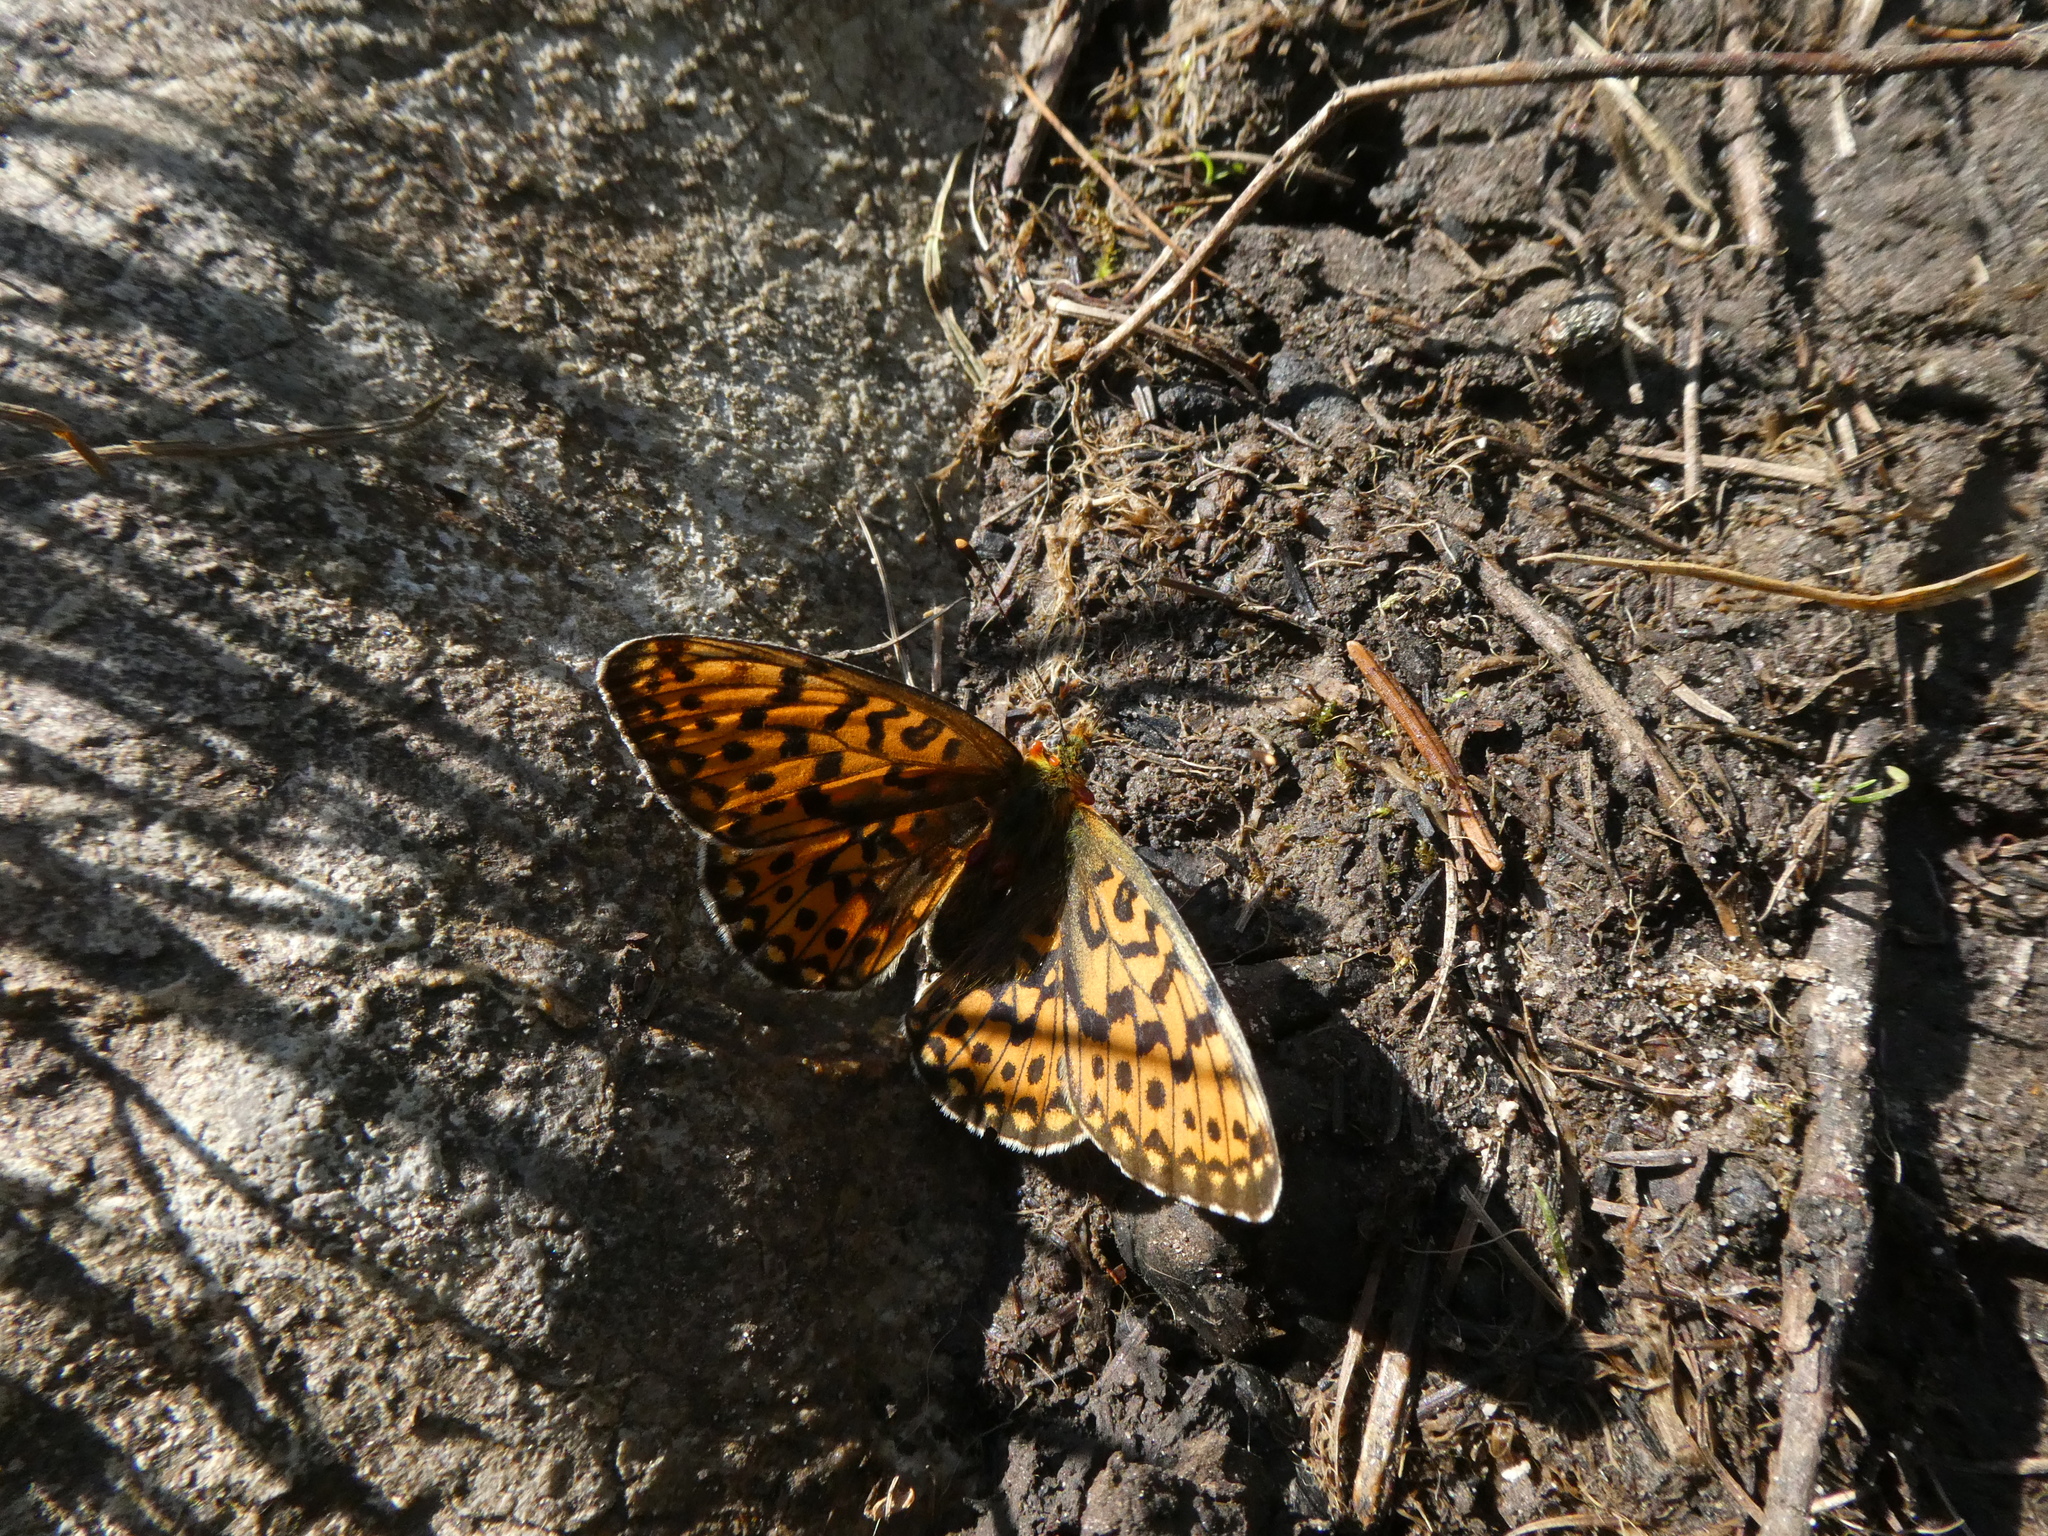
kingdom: Animalia
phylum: Arthropoda
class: Insecta
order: Lepidoptera
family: Nymphalidae
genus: Clossiana
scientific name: Clossiana euphrosyne
